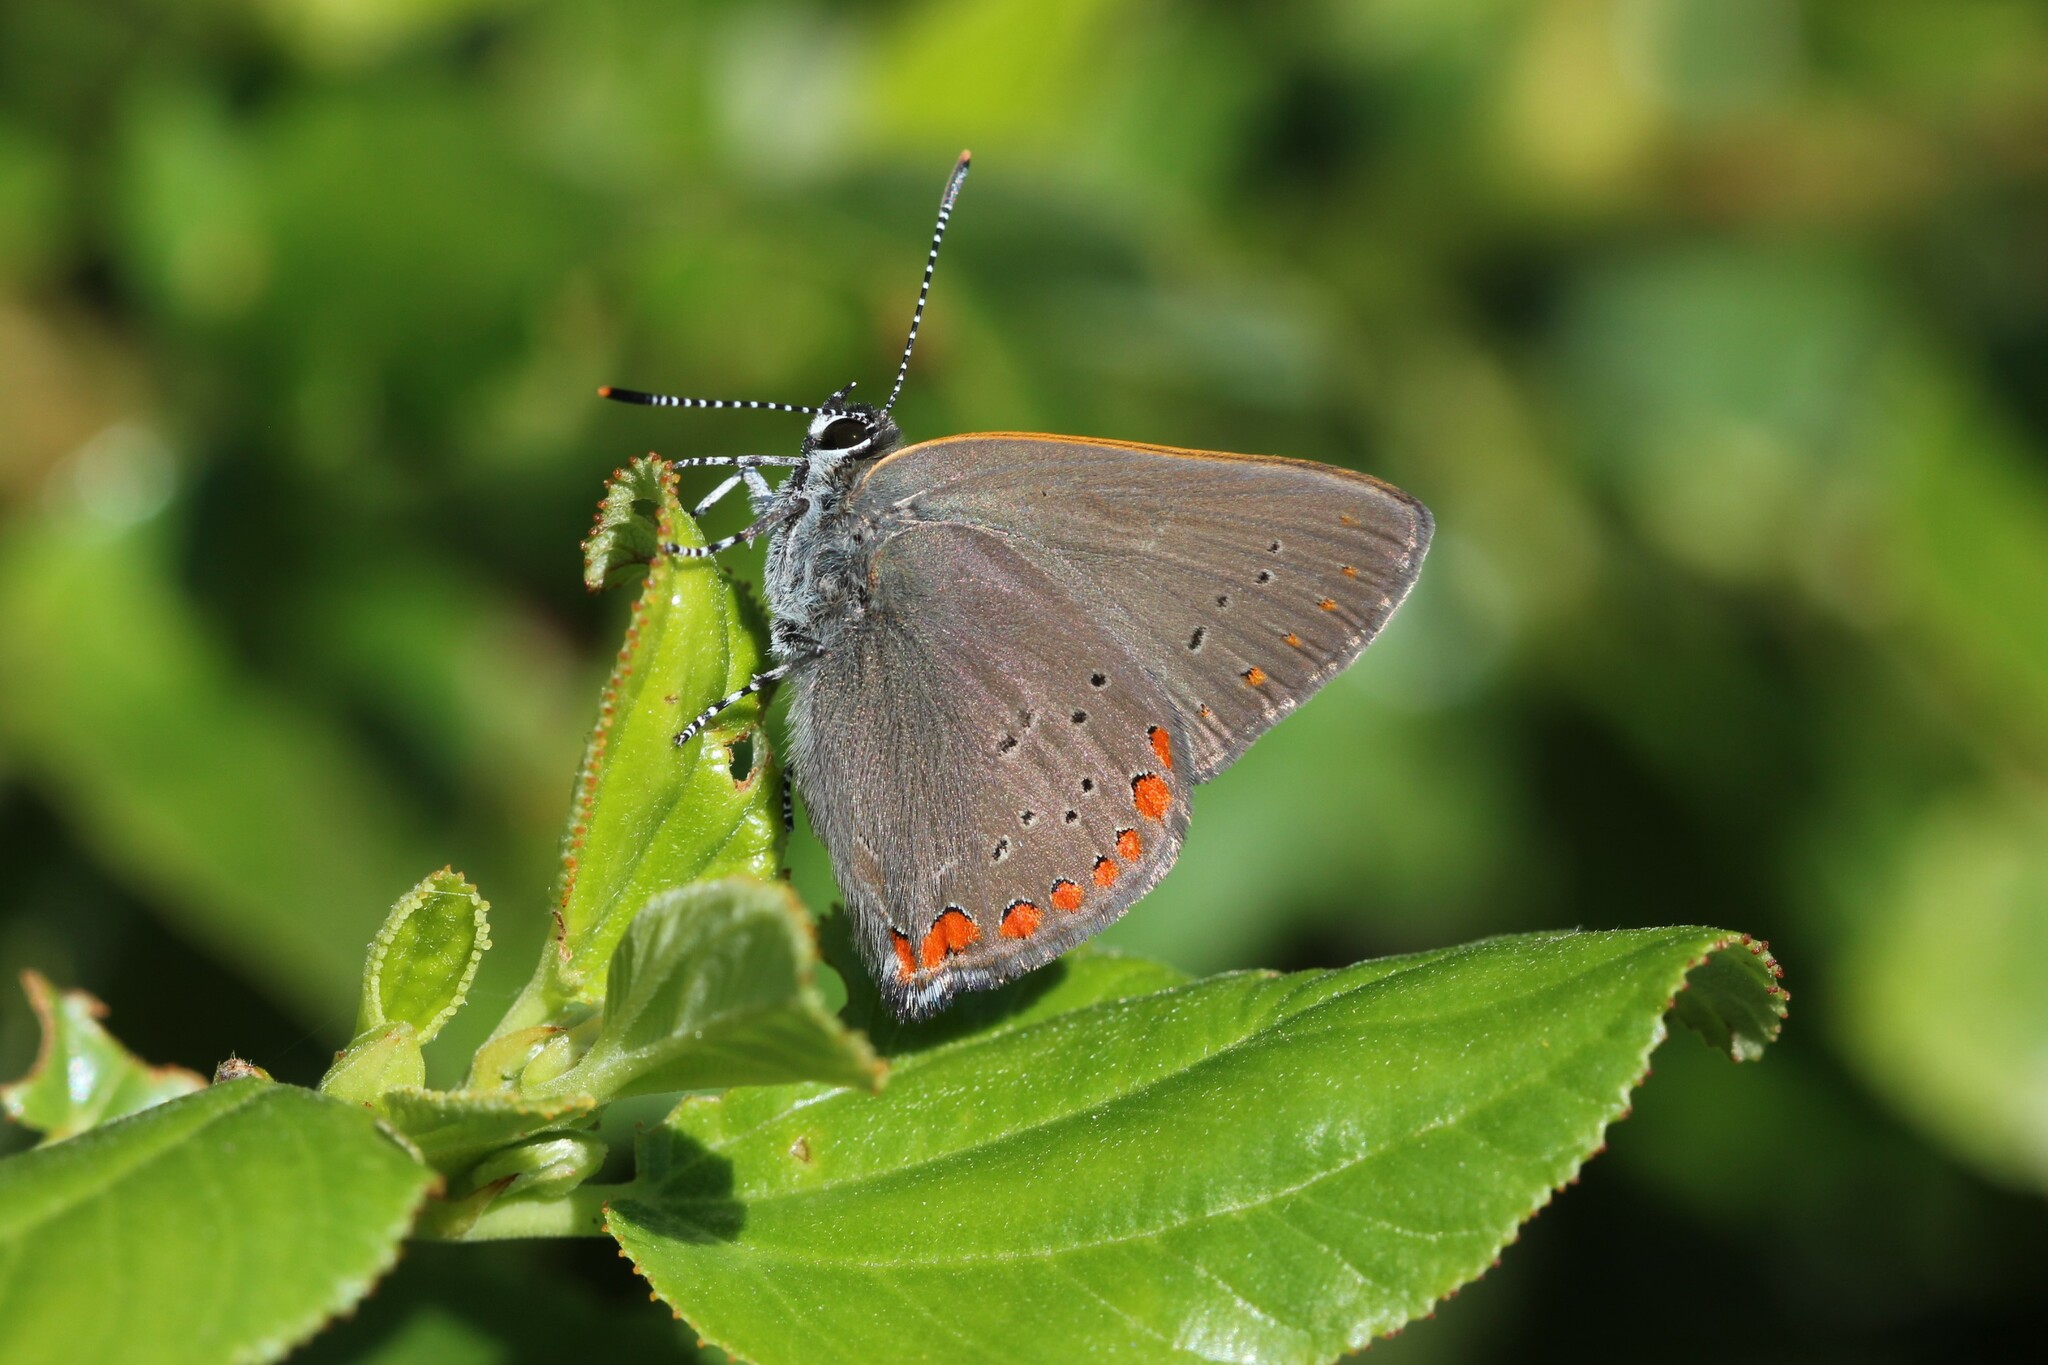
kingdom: Animalia
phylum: Arthropoda
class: Insecta
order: Lepidoptera
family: Lycaenidae
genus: Harkenclenus
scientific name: Harkenclenus titus
